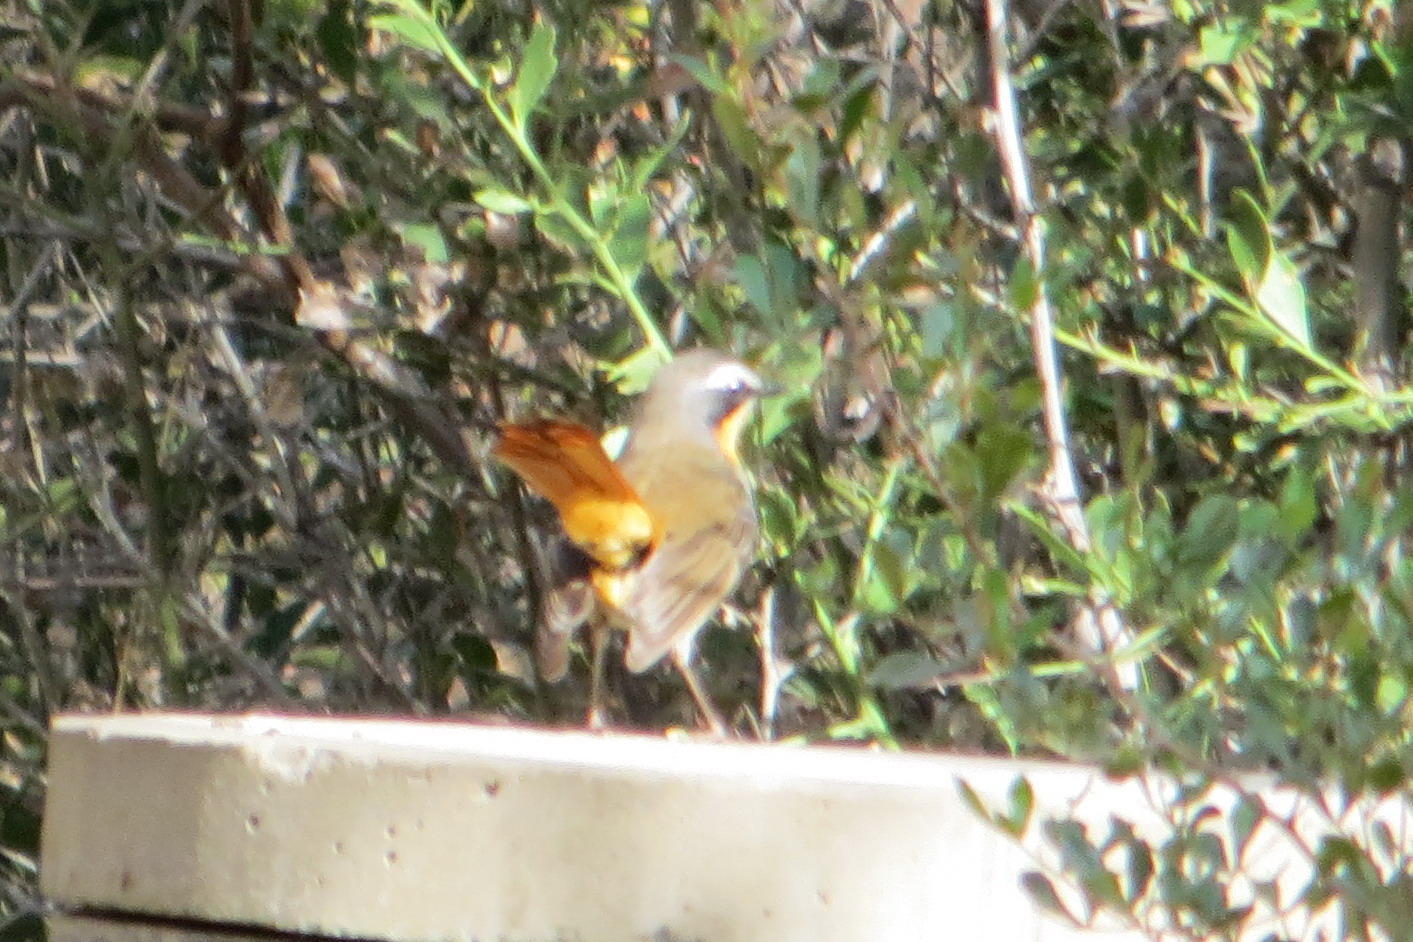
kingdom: Animalia
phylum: Chordata
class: Aves
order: Passeriformes
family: Muscicapidae
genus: Cossypha
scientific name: Cossypha caffra
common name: Cape robin-chat
